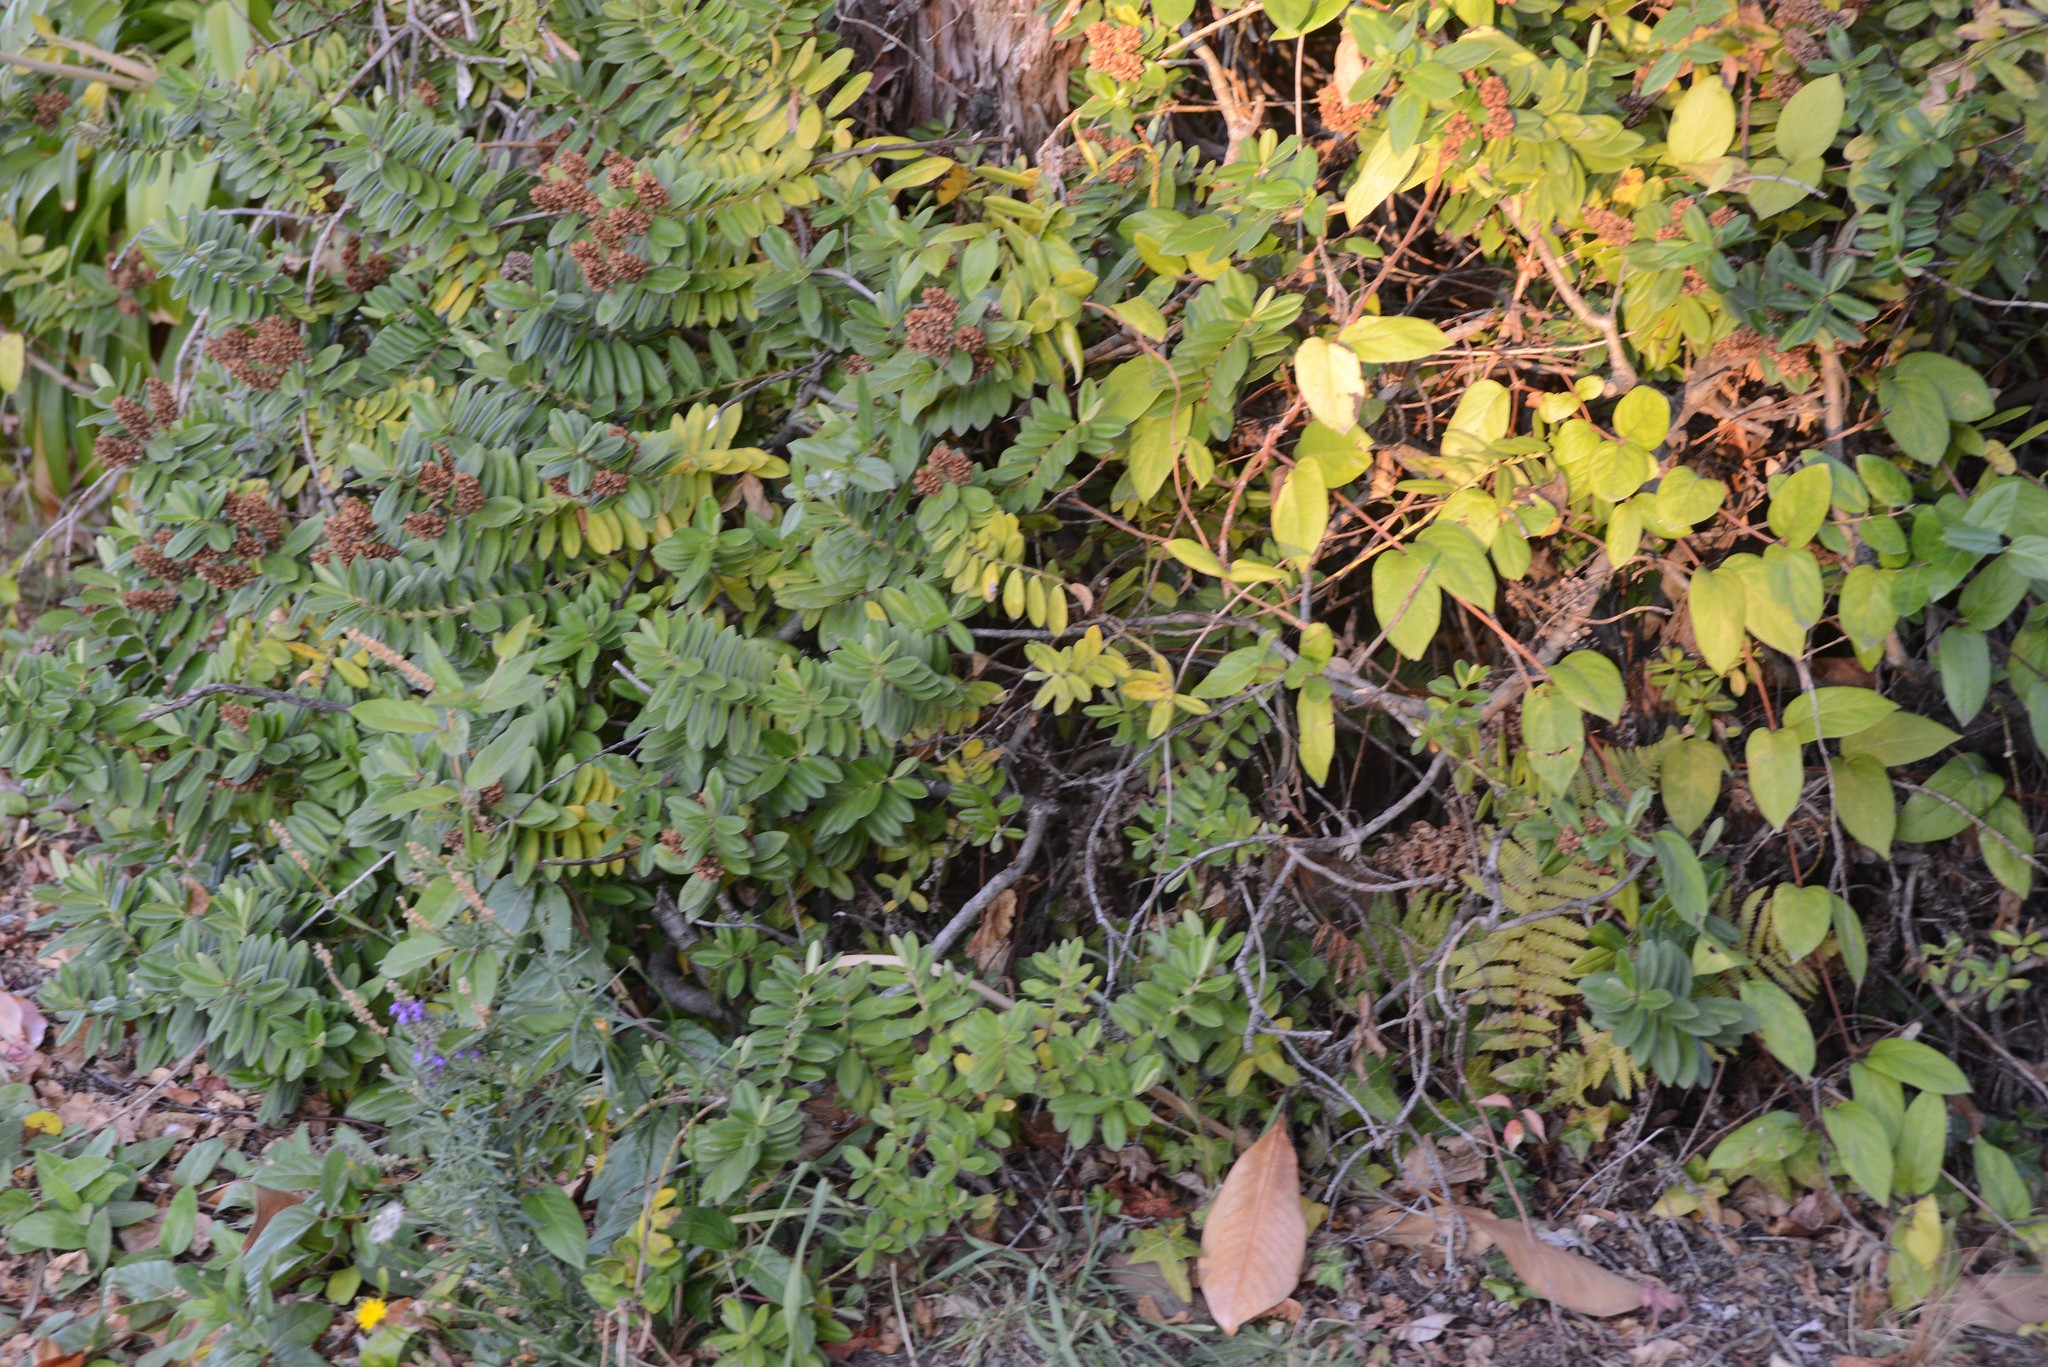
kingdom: Plantae
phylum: Tracheophyta
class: Magnoliopsida
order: Dipsacales
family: Caprifoliaceae
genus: Lonicera
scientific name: Lonicera japonica
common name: Japanese honeysuckle
